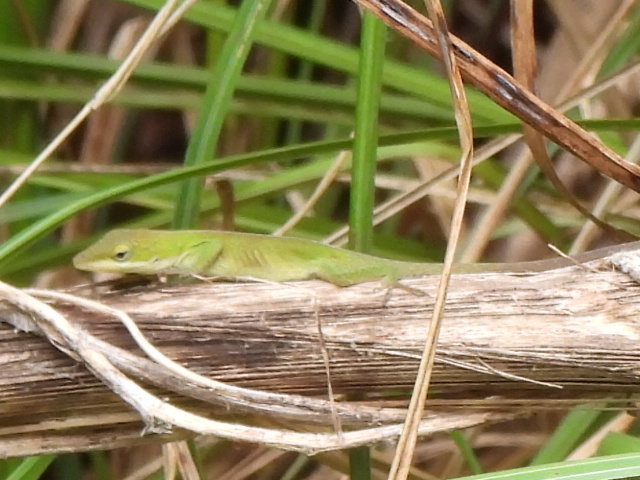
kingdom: Animalia
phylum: Chordata
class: Squamata
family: Dactyloidae
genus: Anolis
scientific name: Anolis carolinensis
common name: Green anole
